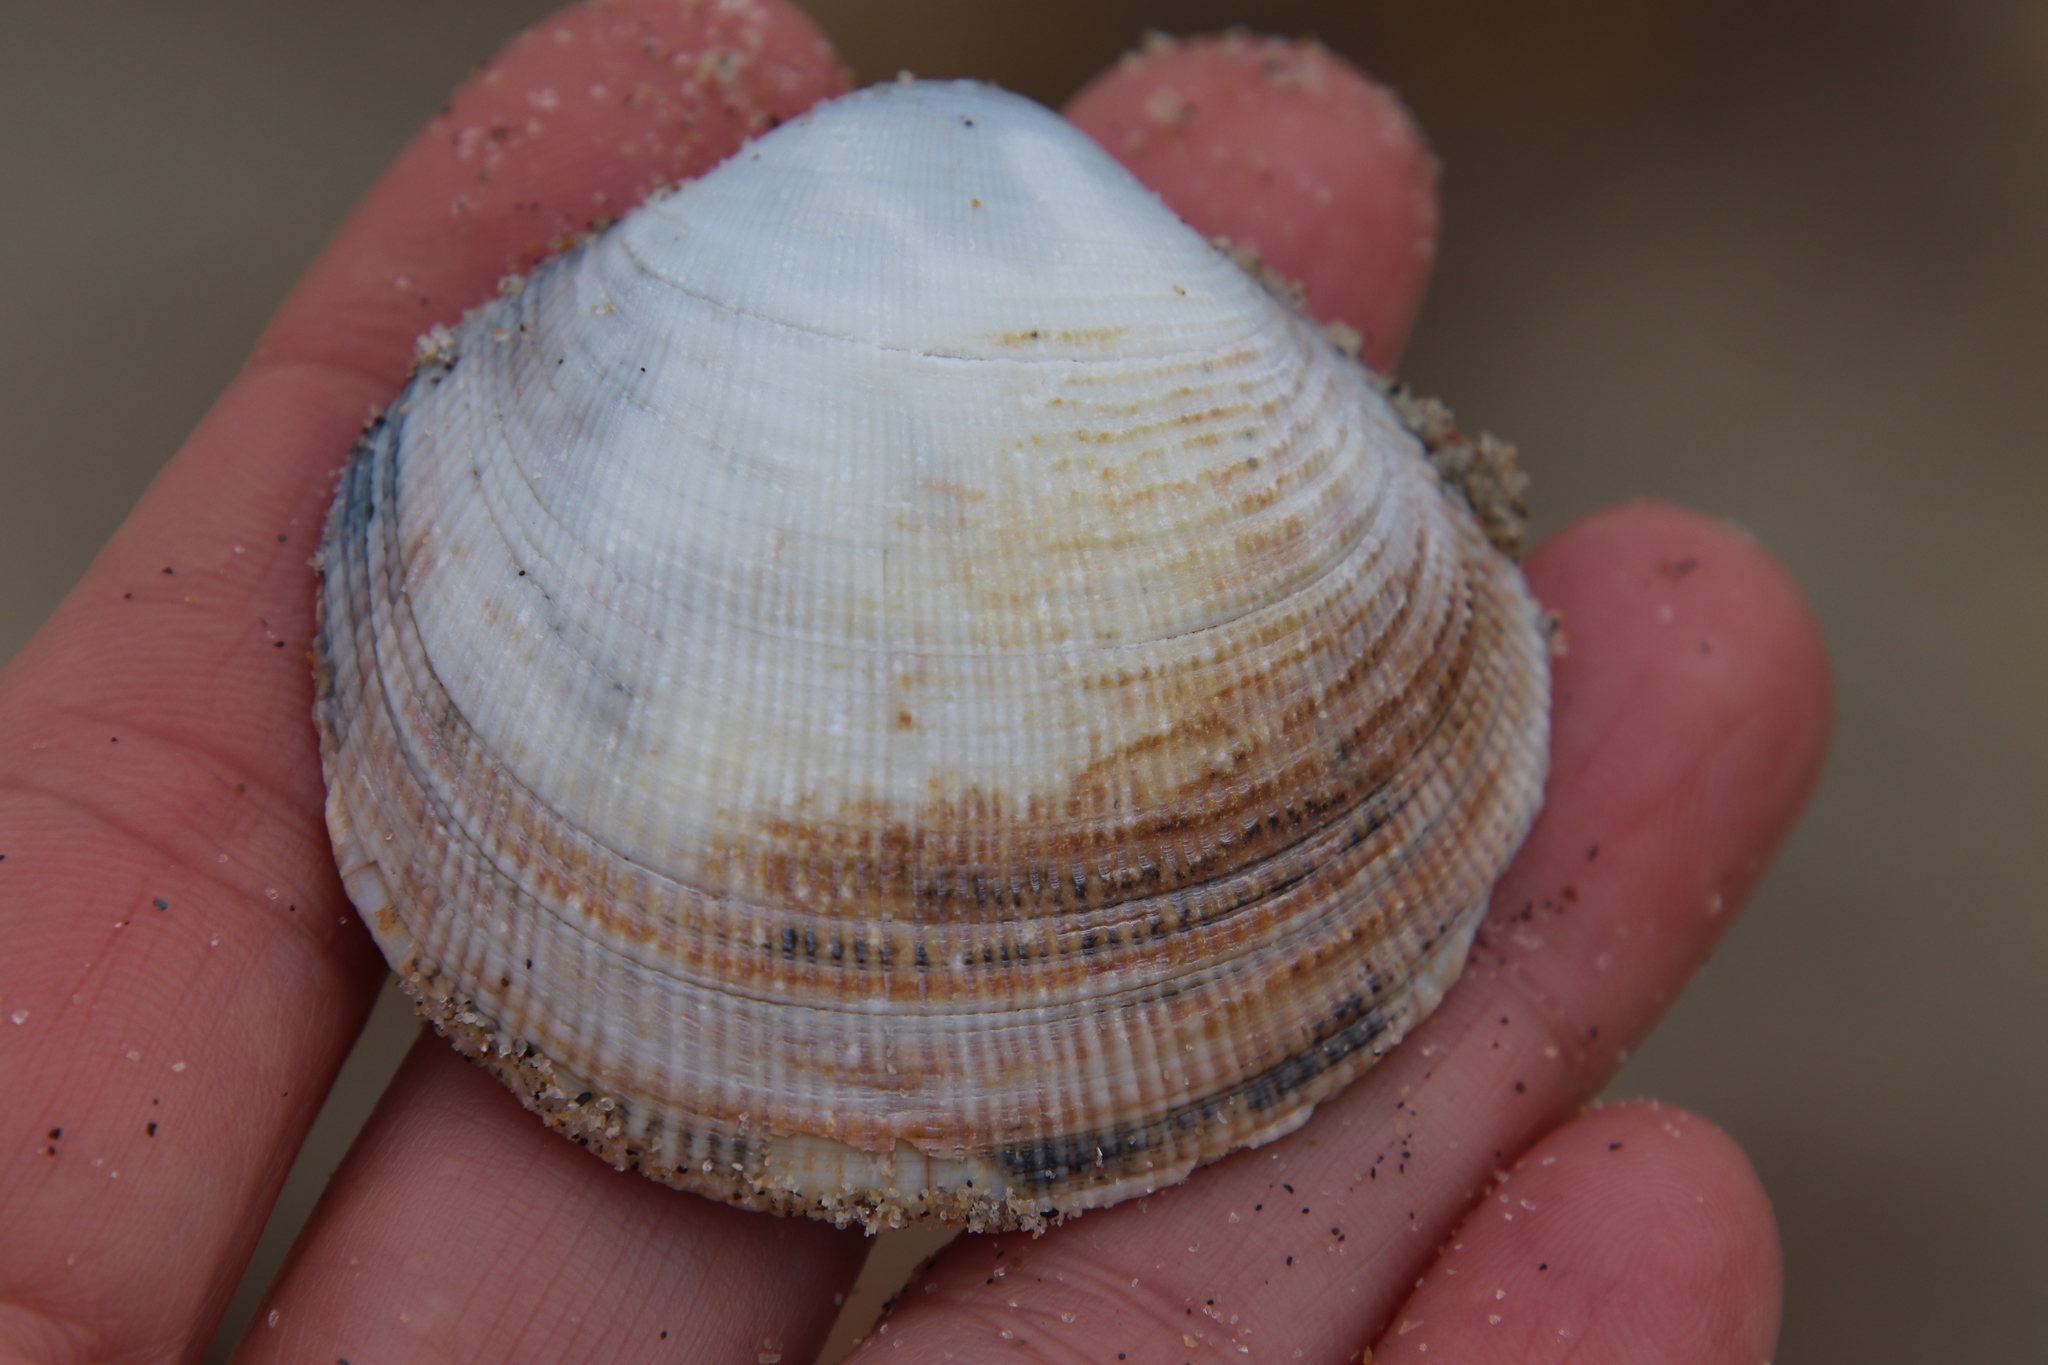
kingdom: Animalia
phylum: Mollusca
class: Bivalvia
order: Venerida
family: Veneridae
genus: Leukoma
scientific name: Leukoma staminea
